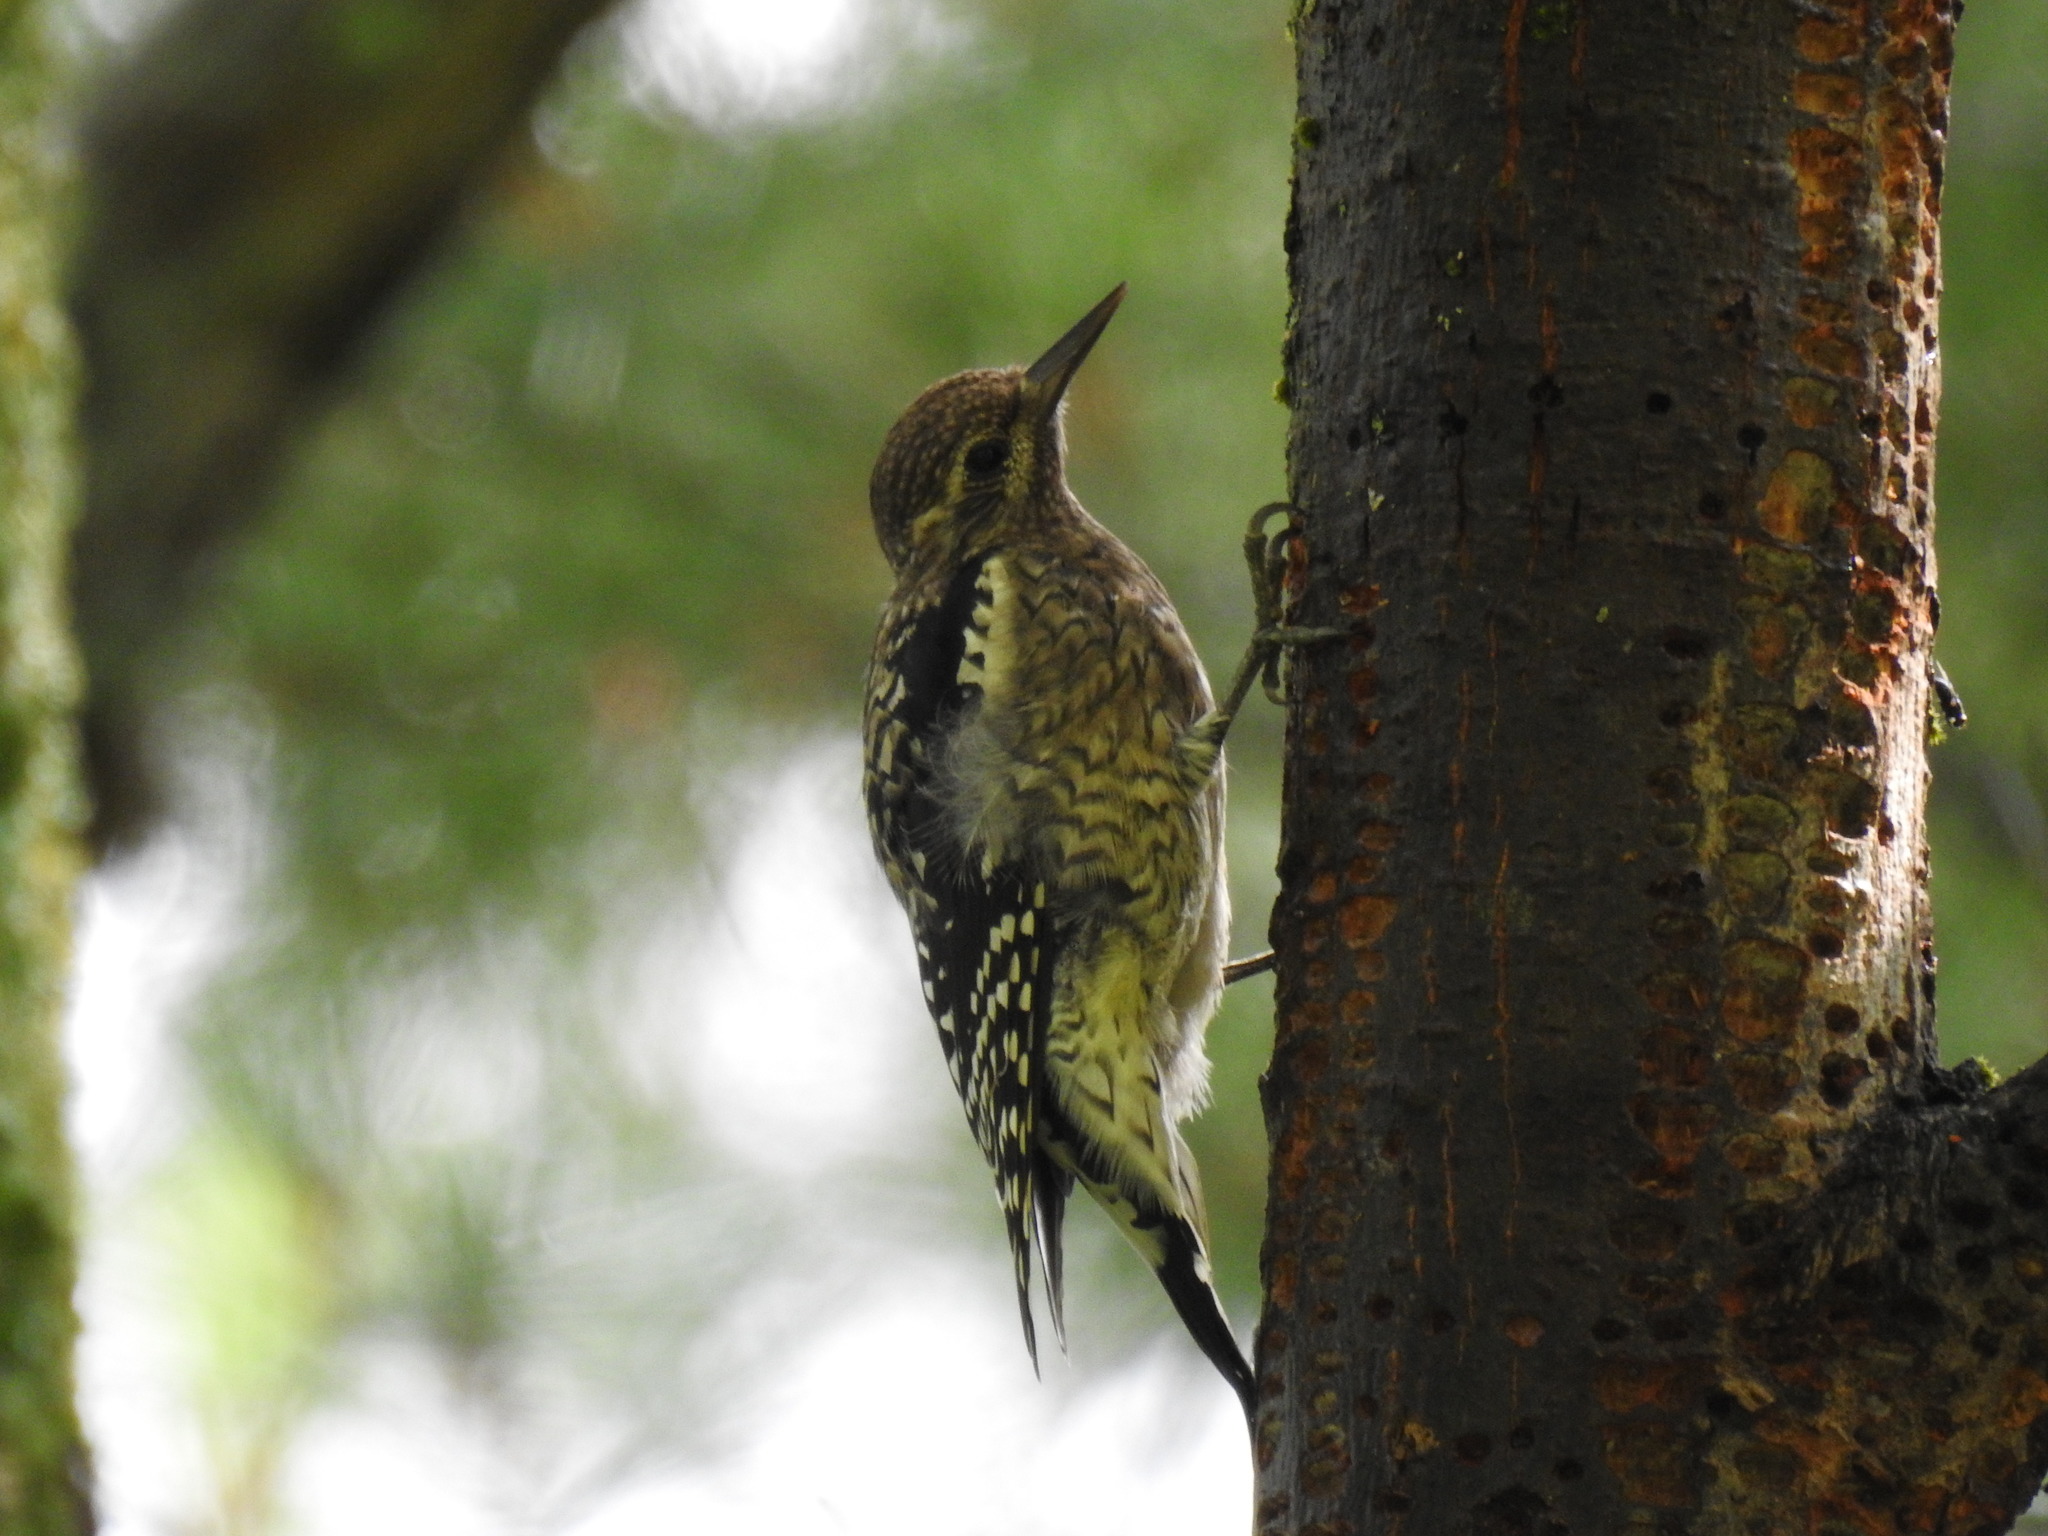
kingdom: Animalia
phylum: Chordata
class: Aves
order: Piciformes
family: Picidae
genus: Sphyrapicus
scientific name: Sphyrapicus varius
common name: Yellow-bellied sapsucker
